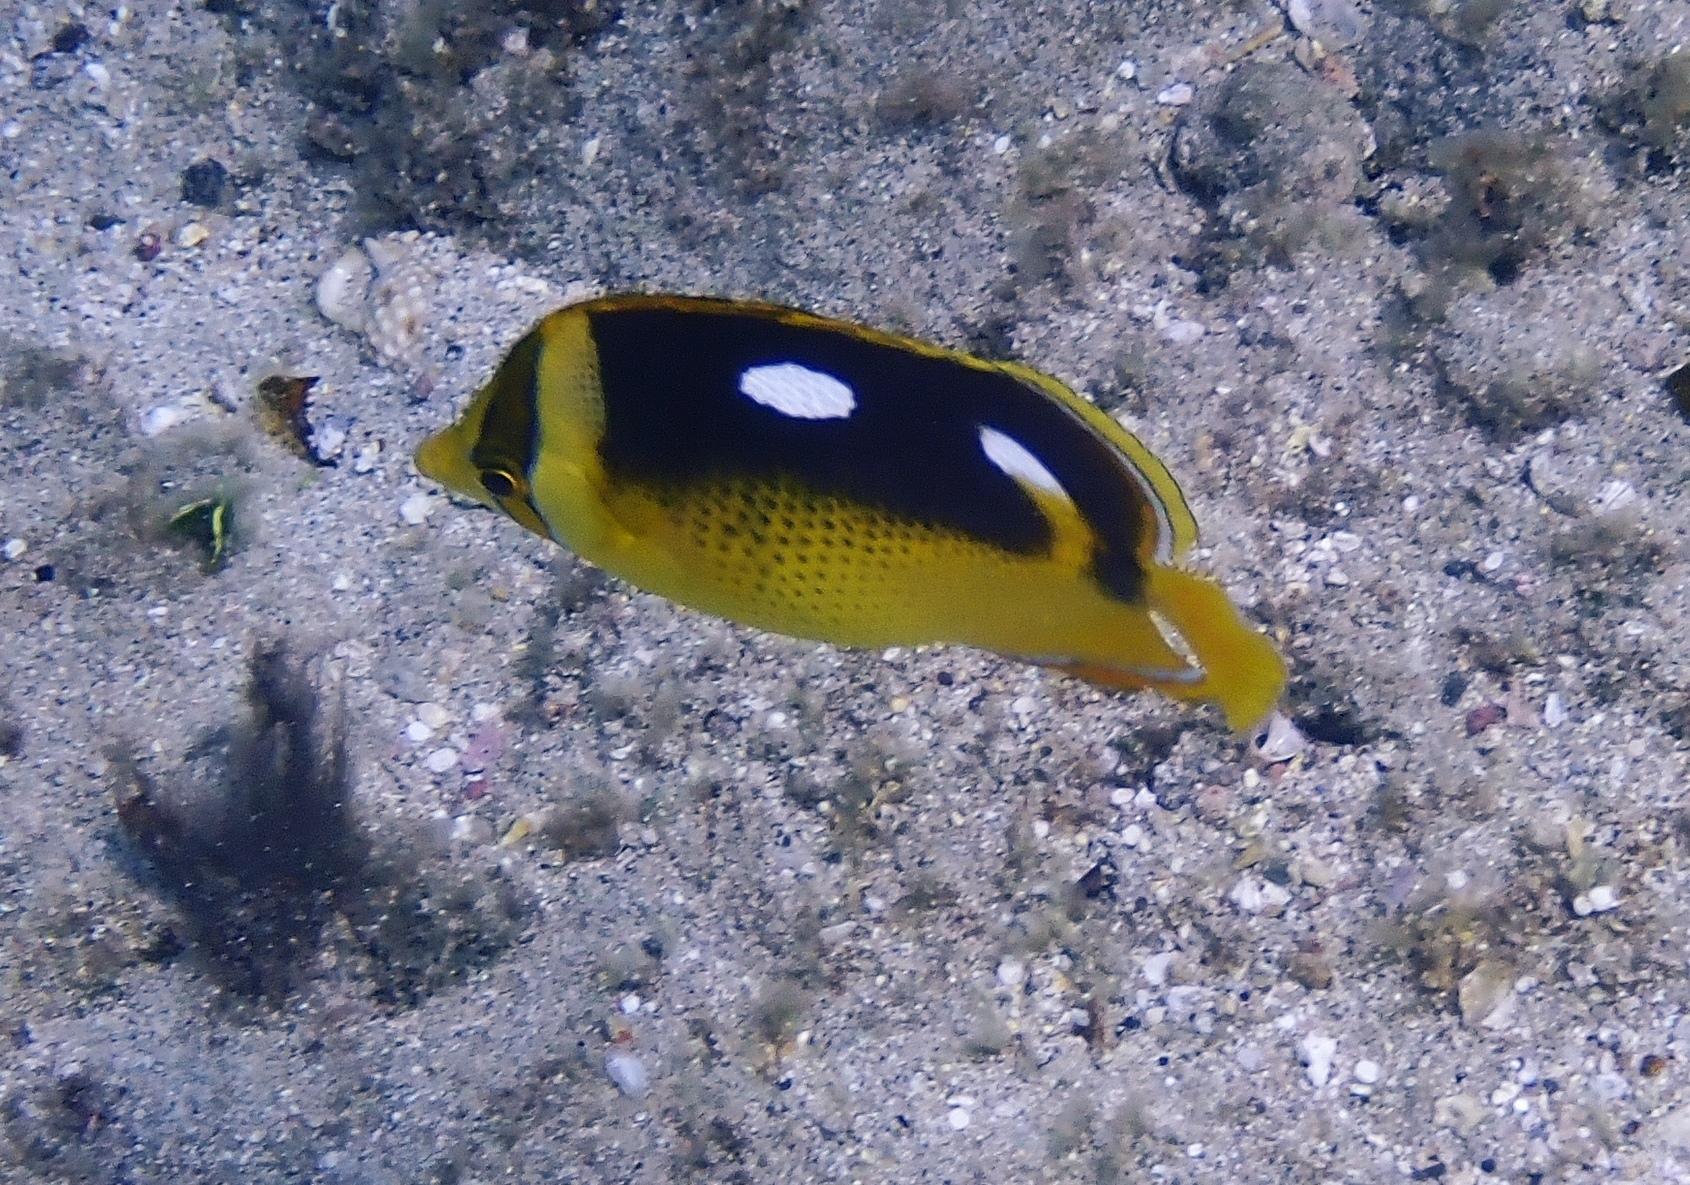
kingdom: Animalia
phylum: Chordata
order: Perciformes
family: Chaetodontidae
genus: Chaetodon
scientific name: Chaetodon quadrimaculatus
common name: Fourspot butterflyfish
